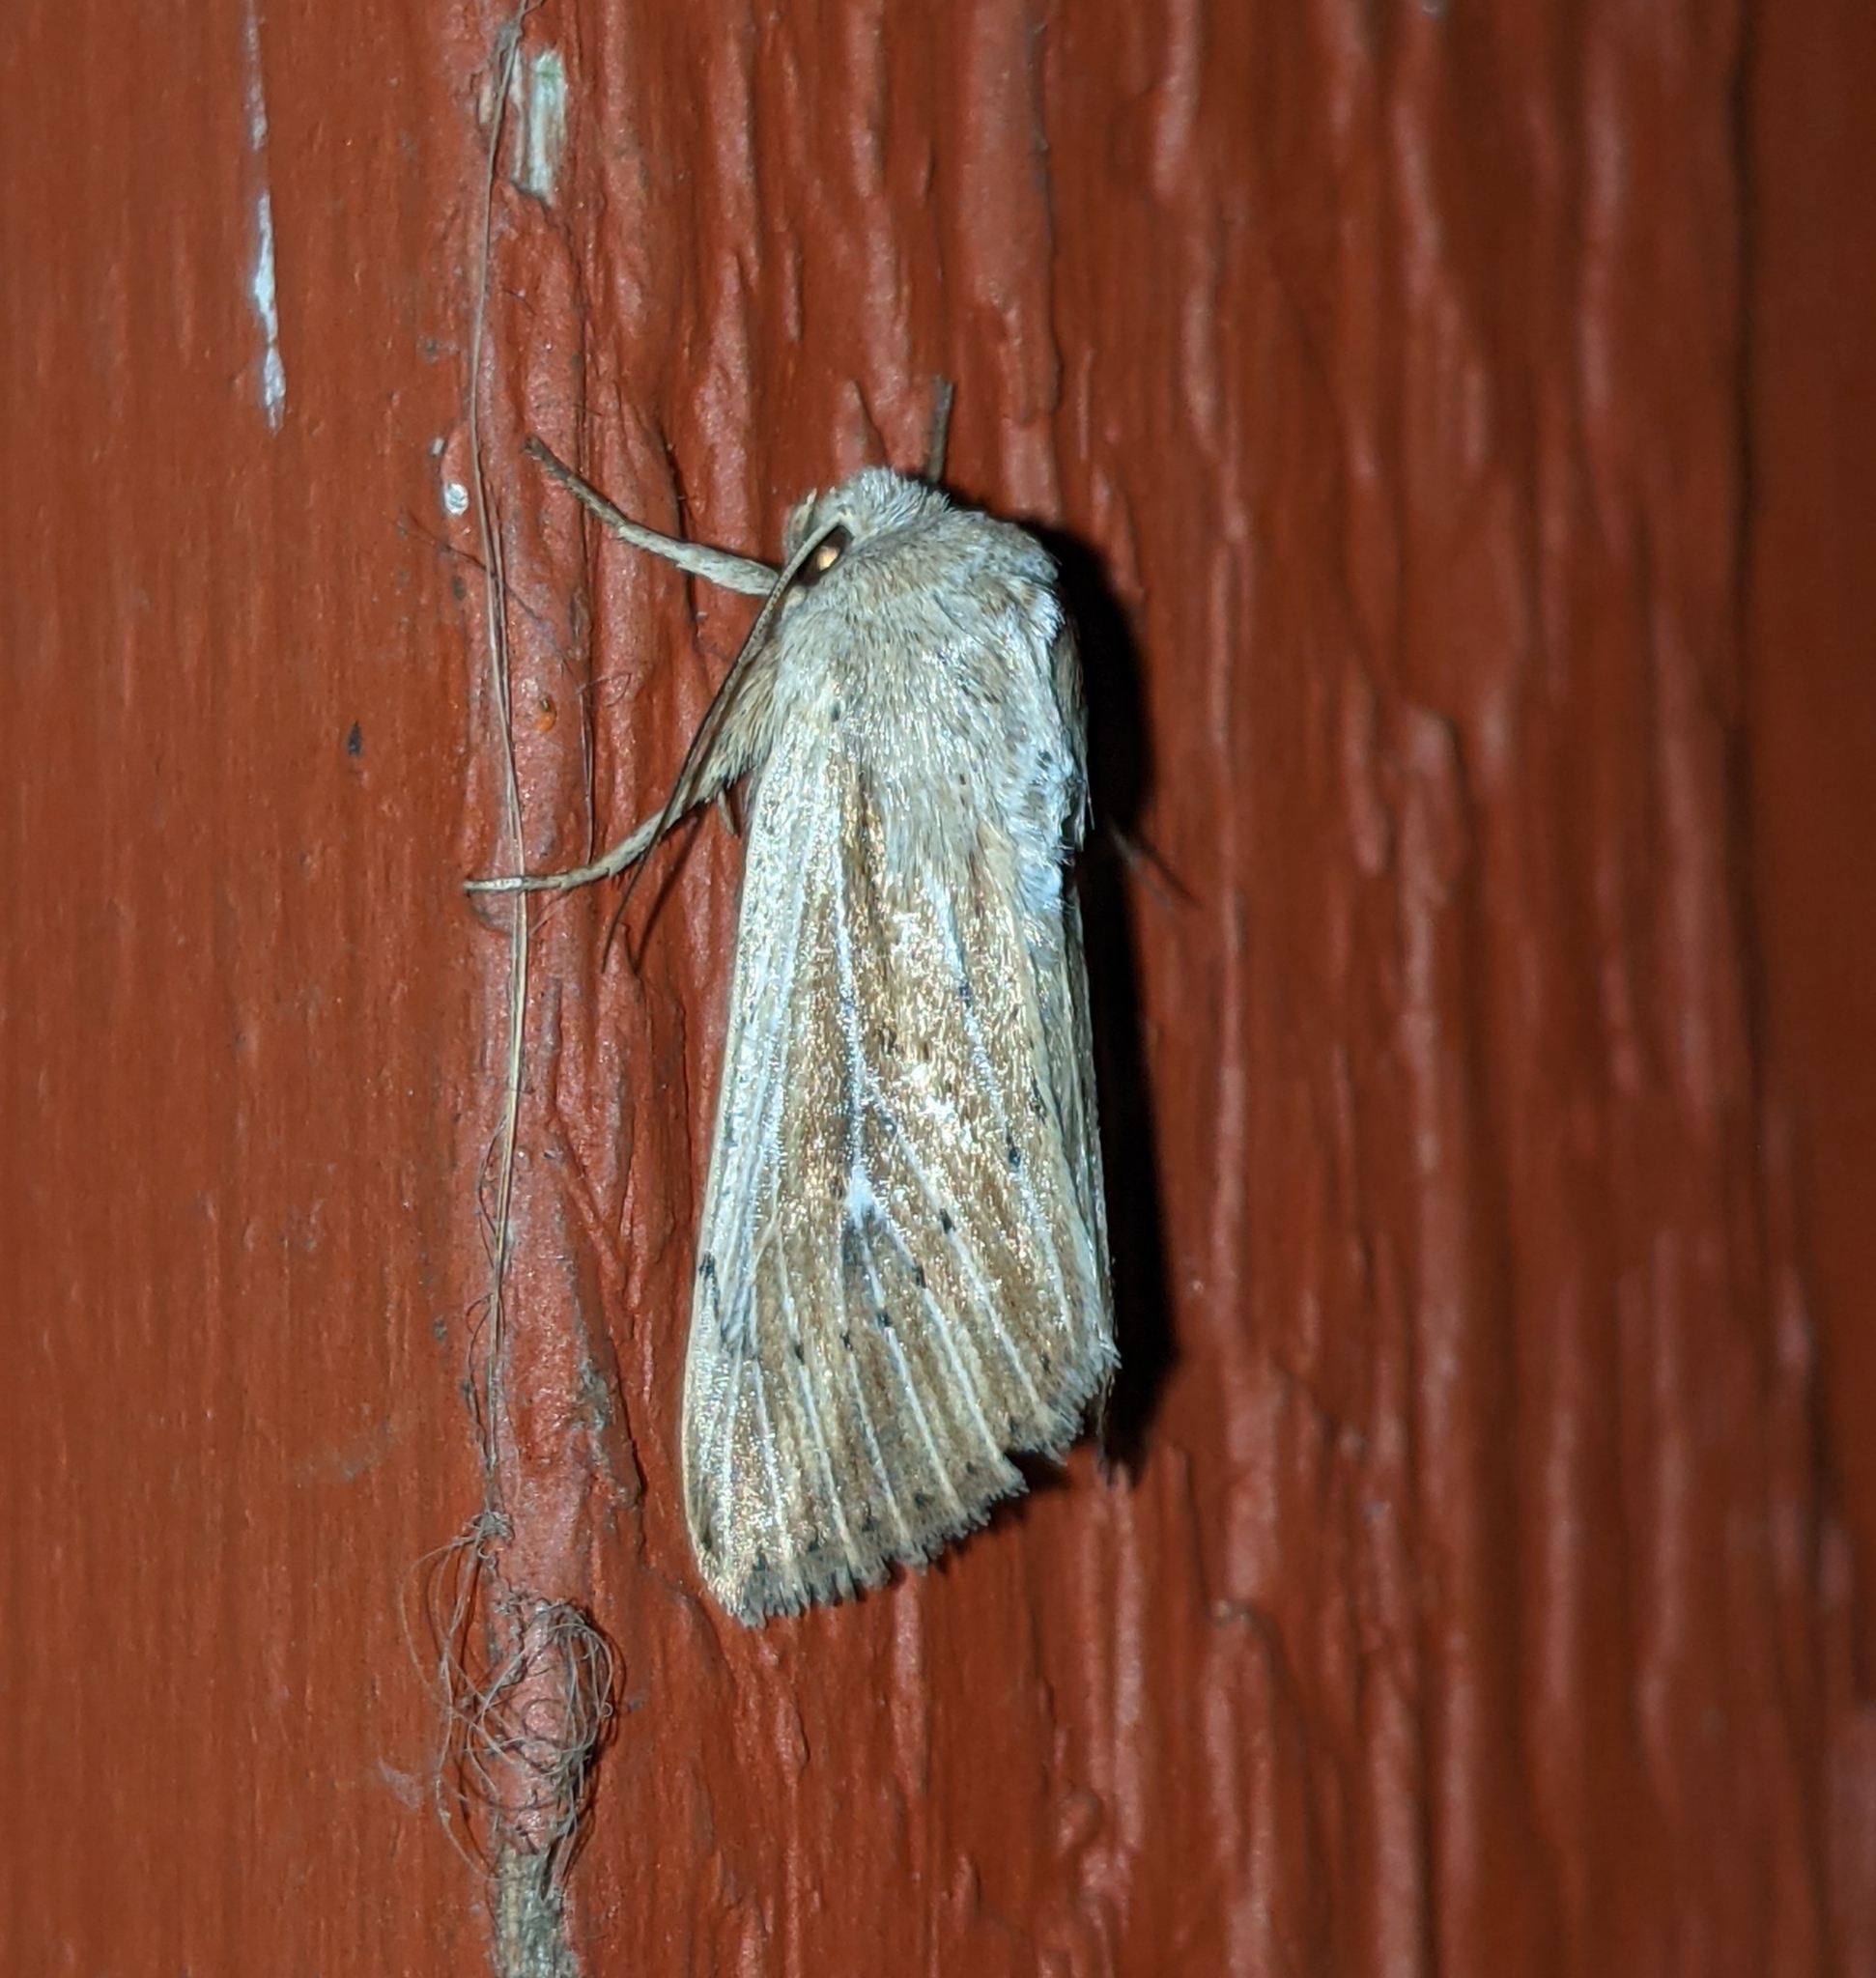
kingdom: Animalia
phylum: Arthropoda
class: Insecta
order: Lepidoptera
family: Noctuidae
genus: Leucania
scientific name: Leucania insueta
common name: Heterodox wainscot moth
